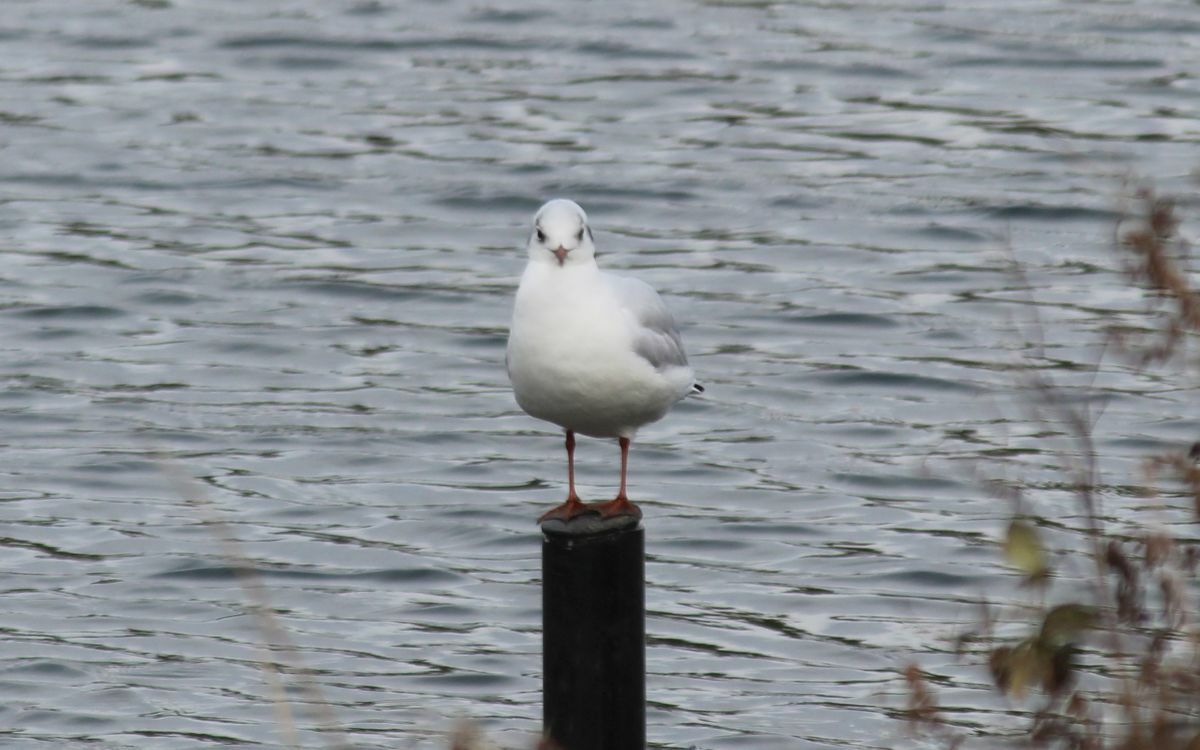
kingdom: Animalia
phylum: Chordata
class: Aves
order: Charadriiformes
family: Laridae
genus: Chroicocephalus
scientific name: Chroicocephalus ridibundus
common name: Black-headed gull
